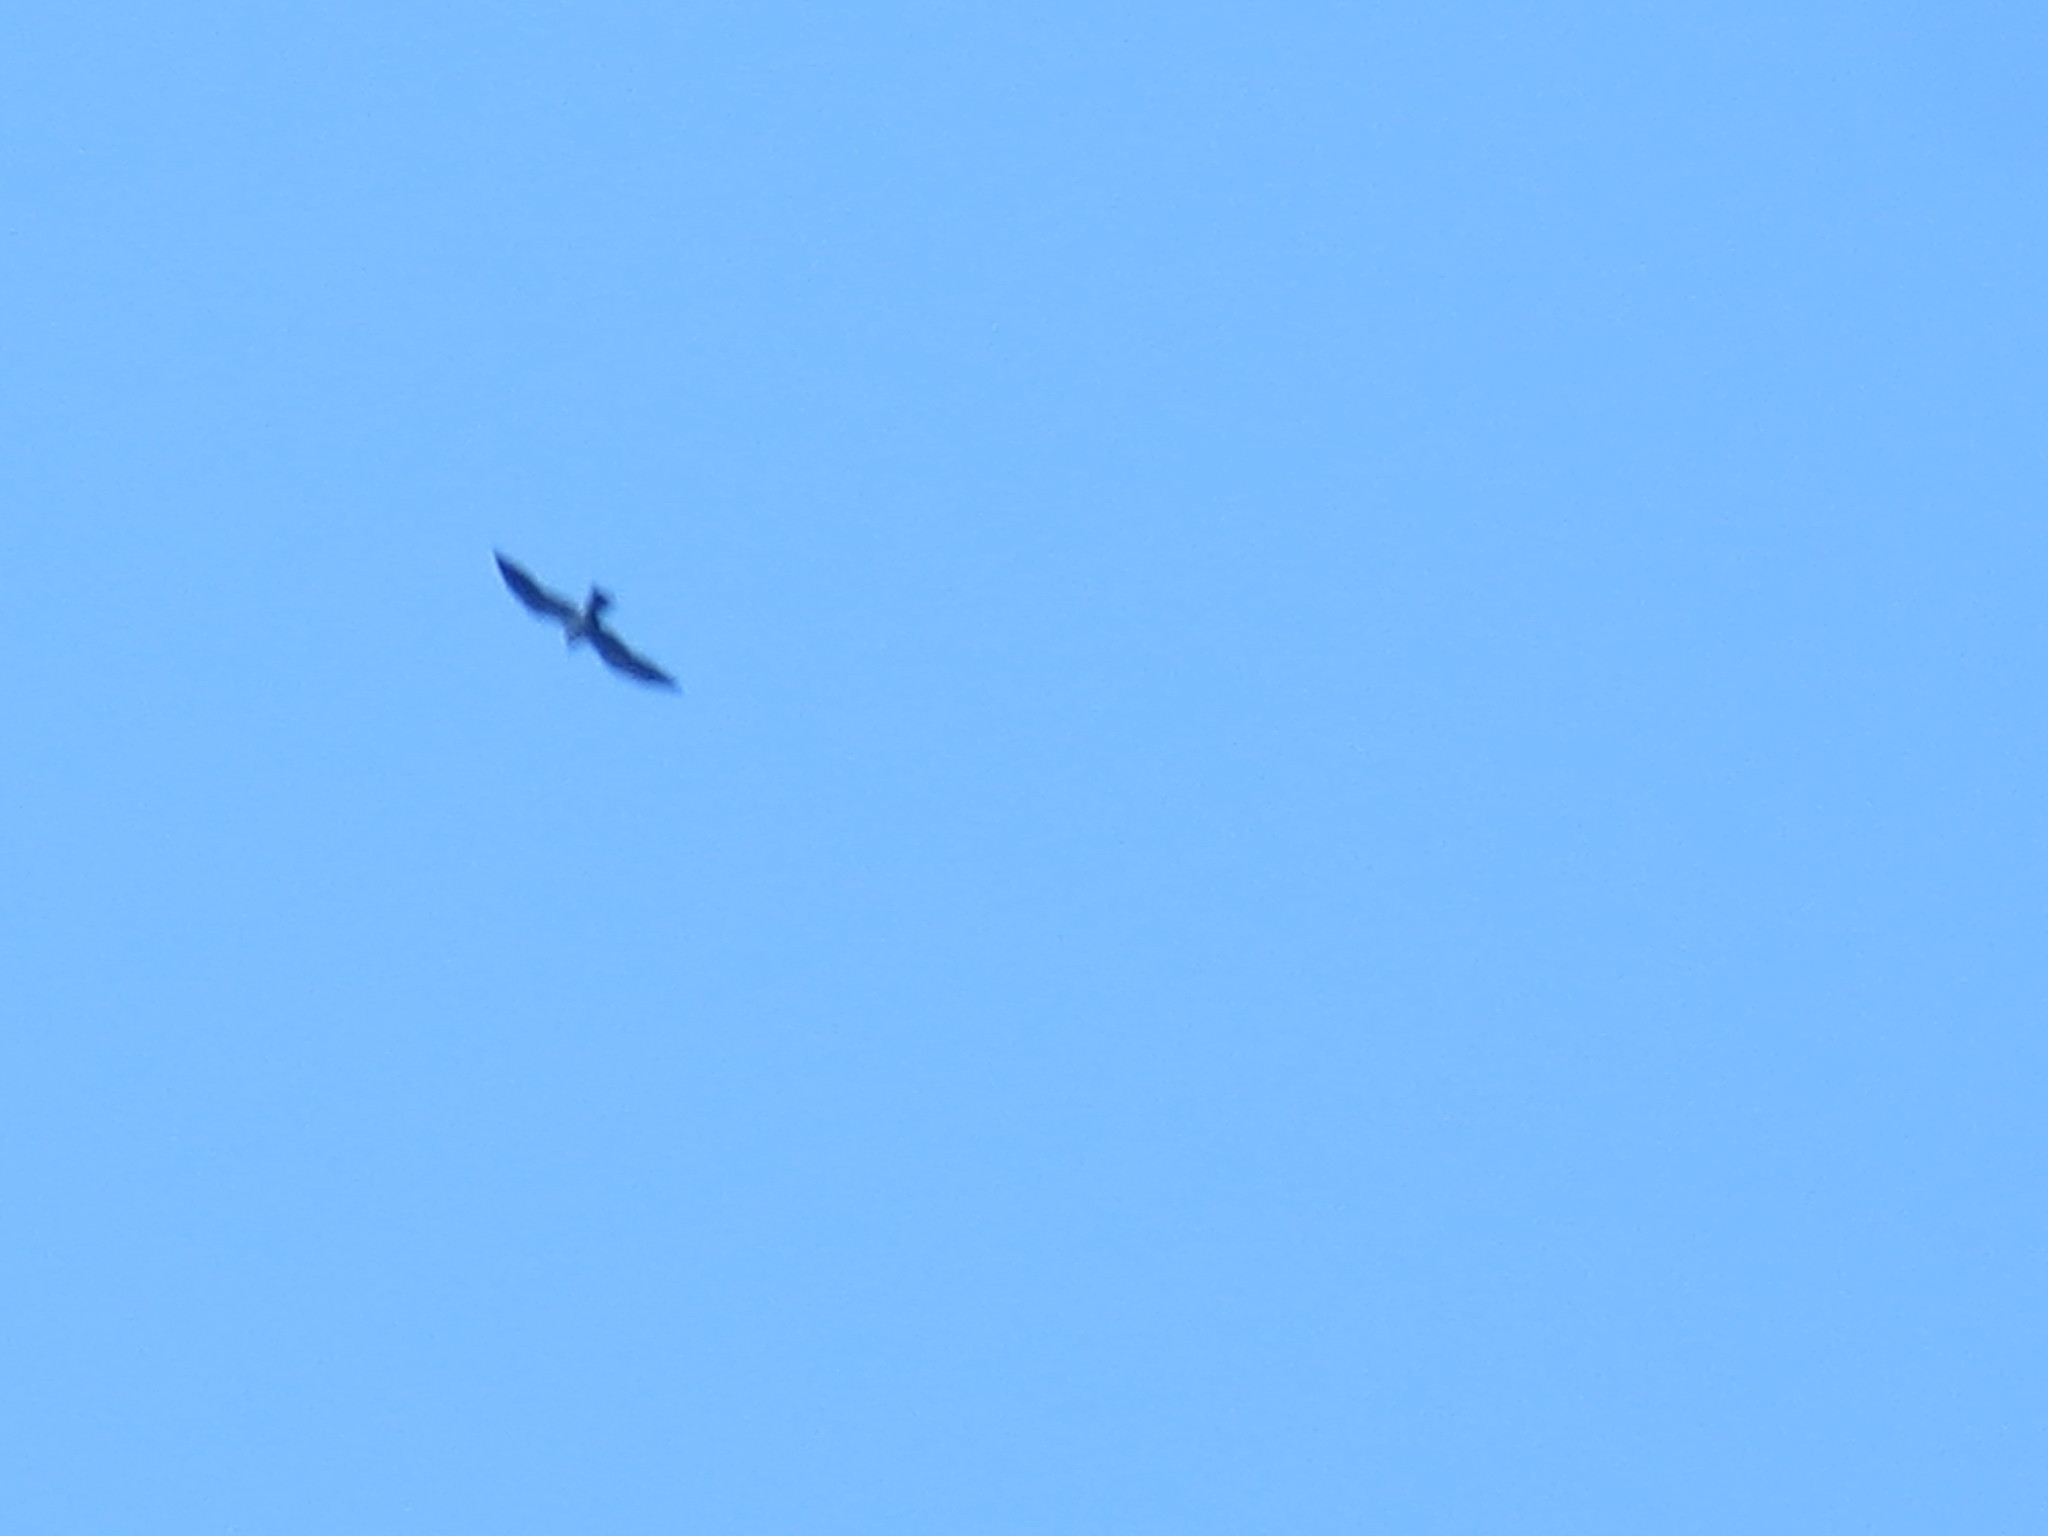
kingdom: Animalia
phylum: Chordata
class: Aves
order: Accipitriformes
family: Accipitridae
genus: Ictinia
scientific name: Ictinia mississippiensis
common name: Mississippi kite
